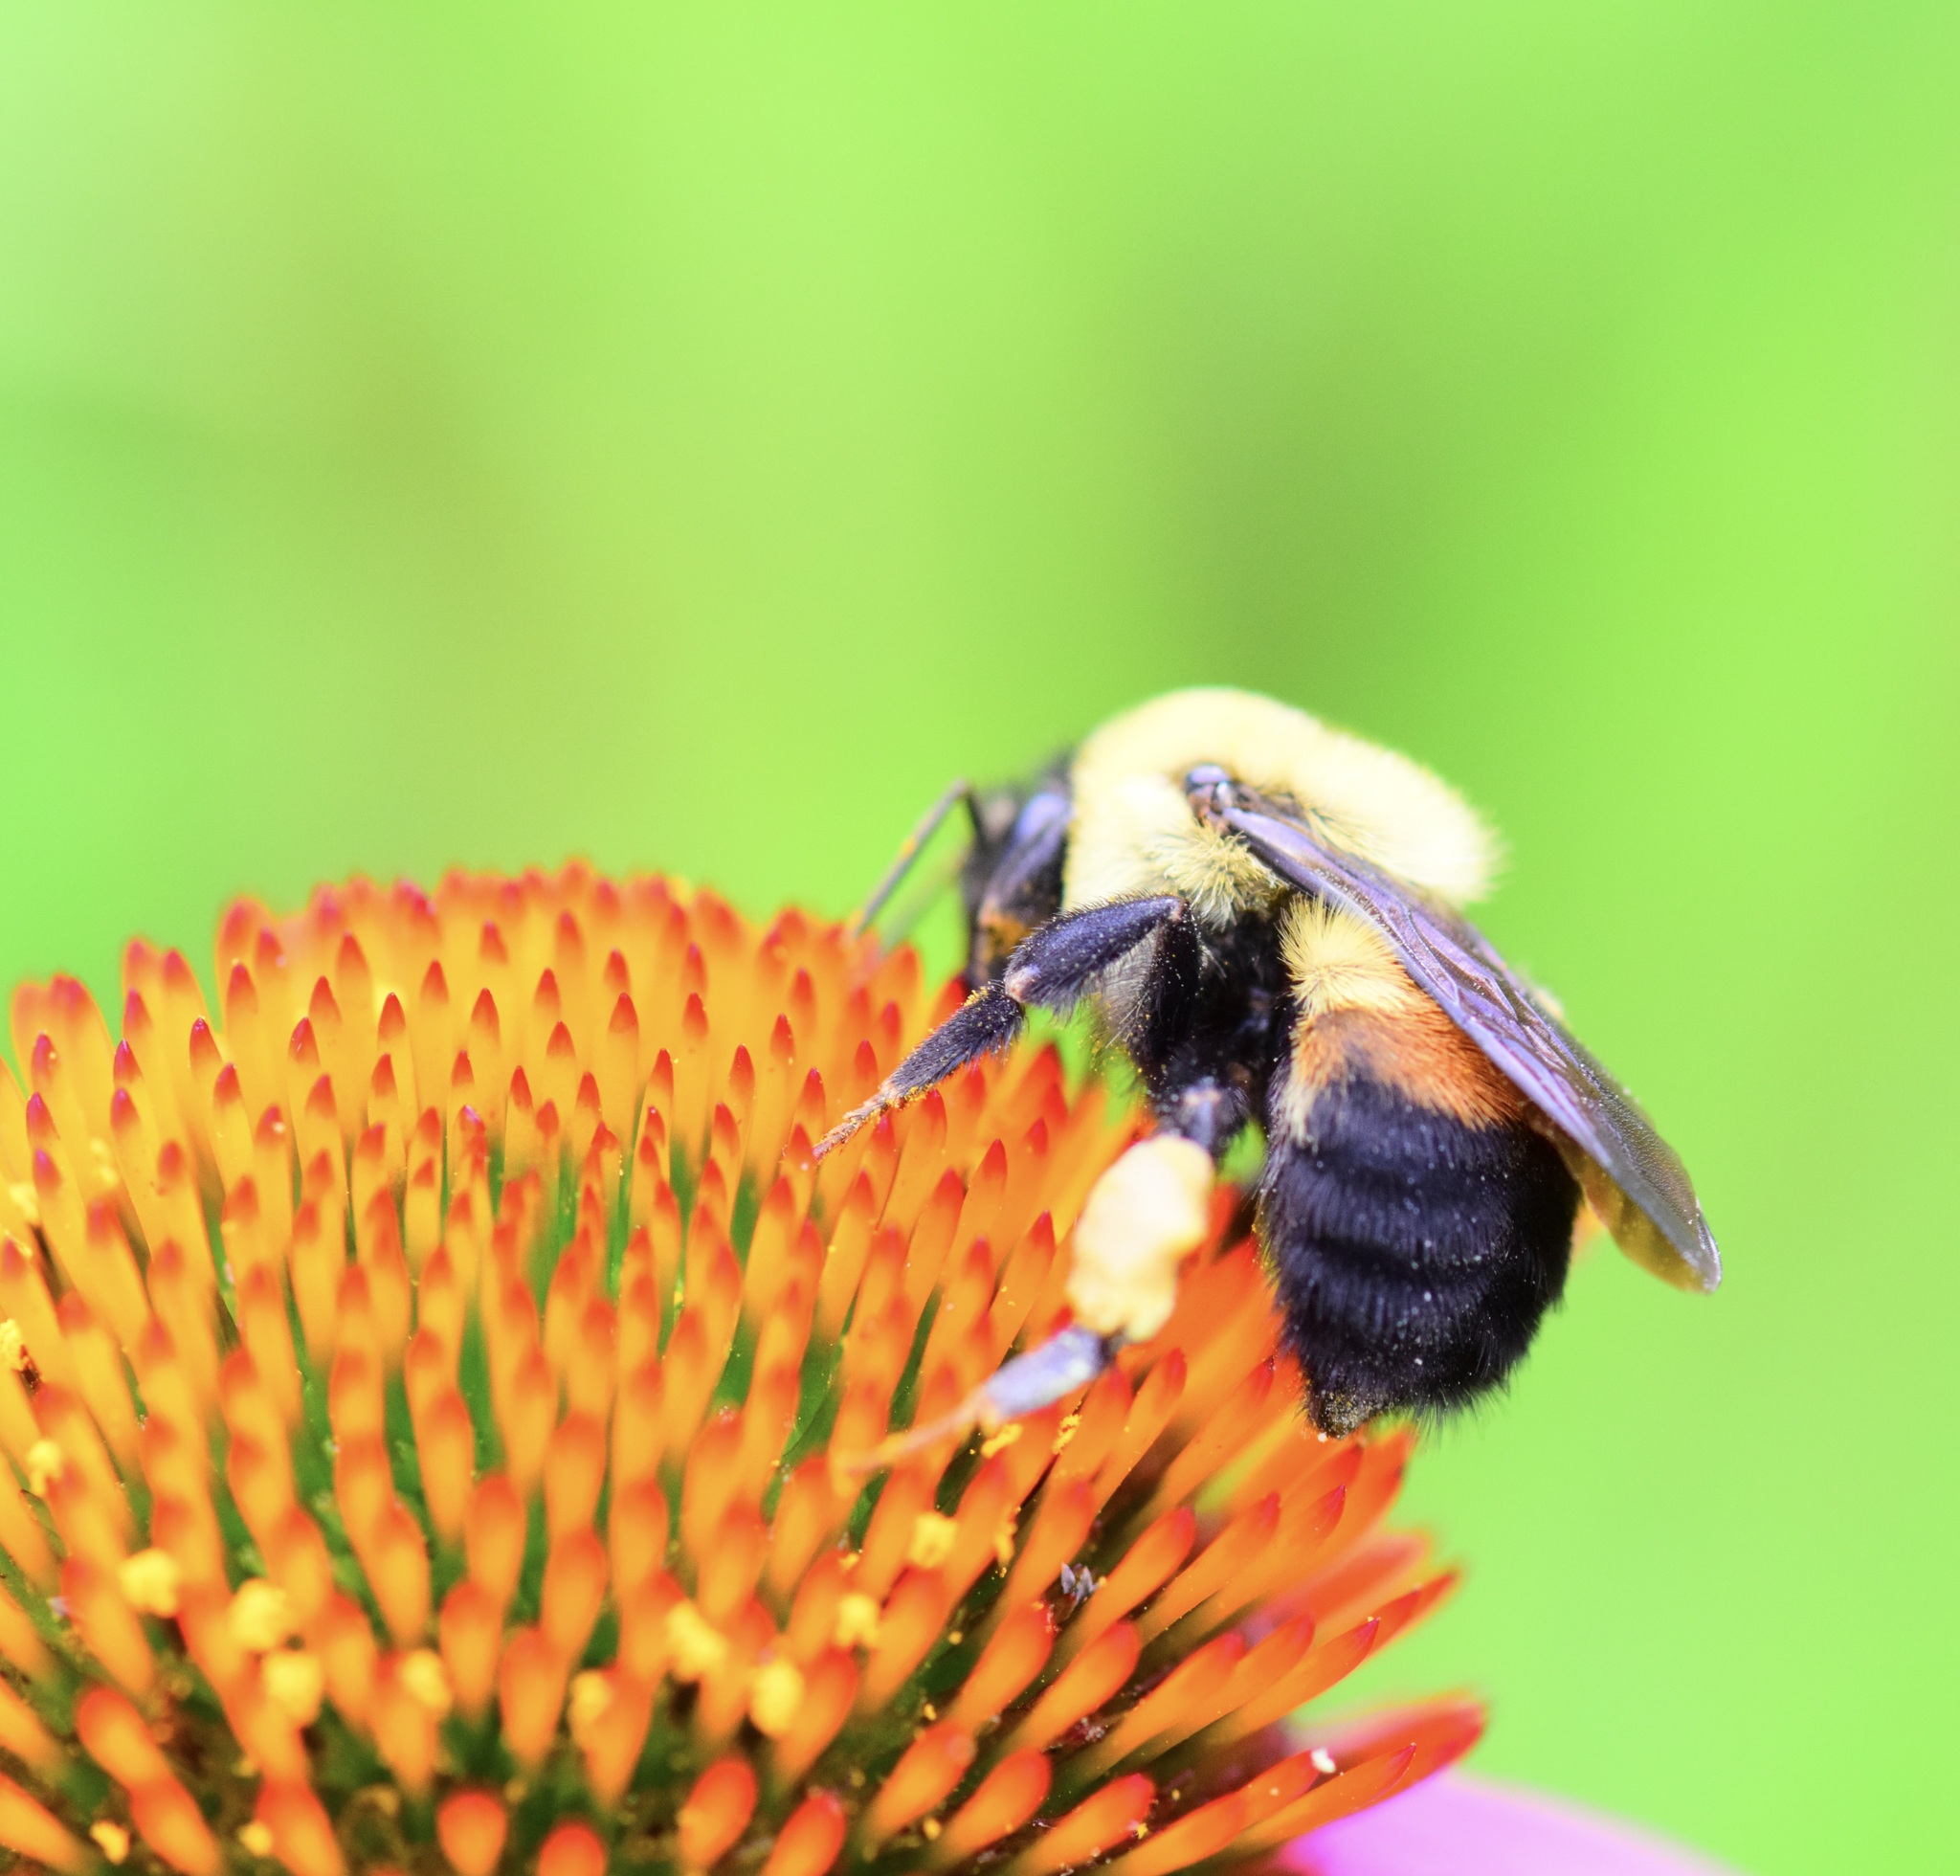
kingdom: Animalia
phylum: Arthropoda
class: Insecta
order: Hymenoptera
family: Apidae
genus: Bombus
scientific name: Bombus griseocollis
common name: Brown-belted bumble bee
